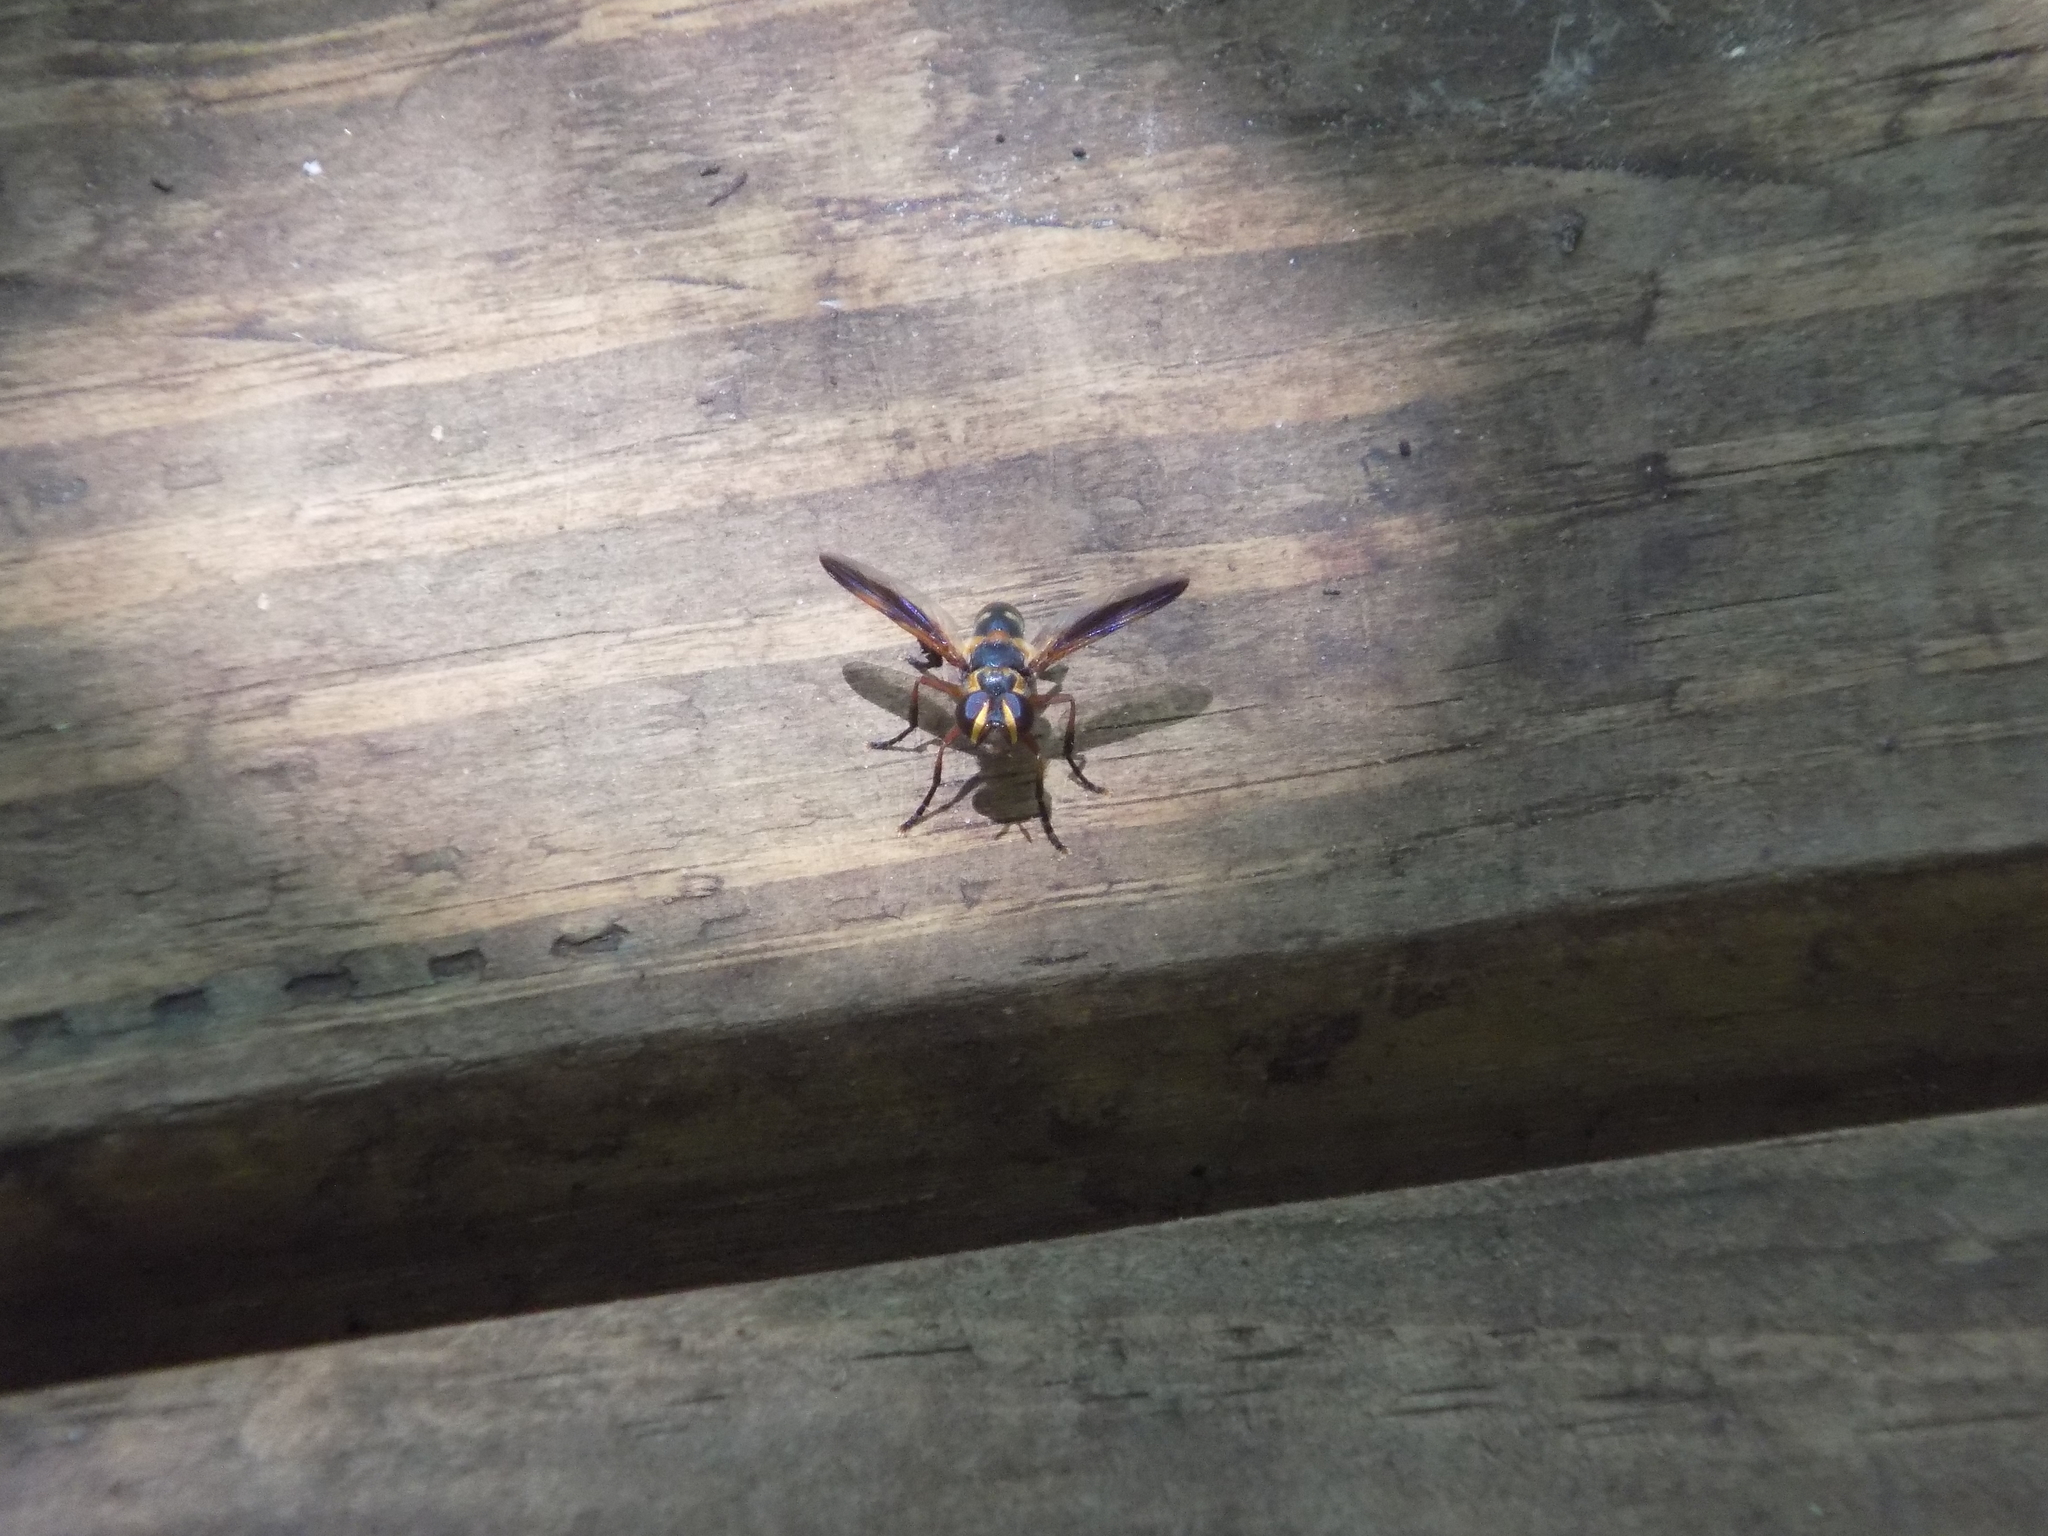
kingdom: Animalia
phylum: Arthropoda
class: Insecta
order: Diptera
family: Tachinidae
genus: Trichopoda
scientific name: Trichopoda plumipes
